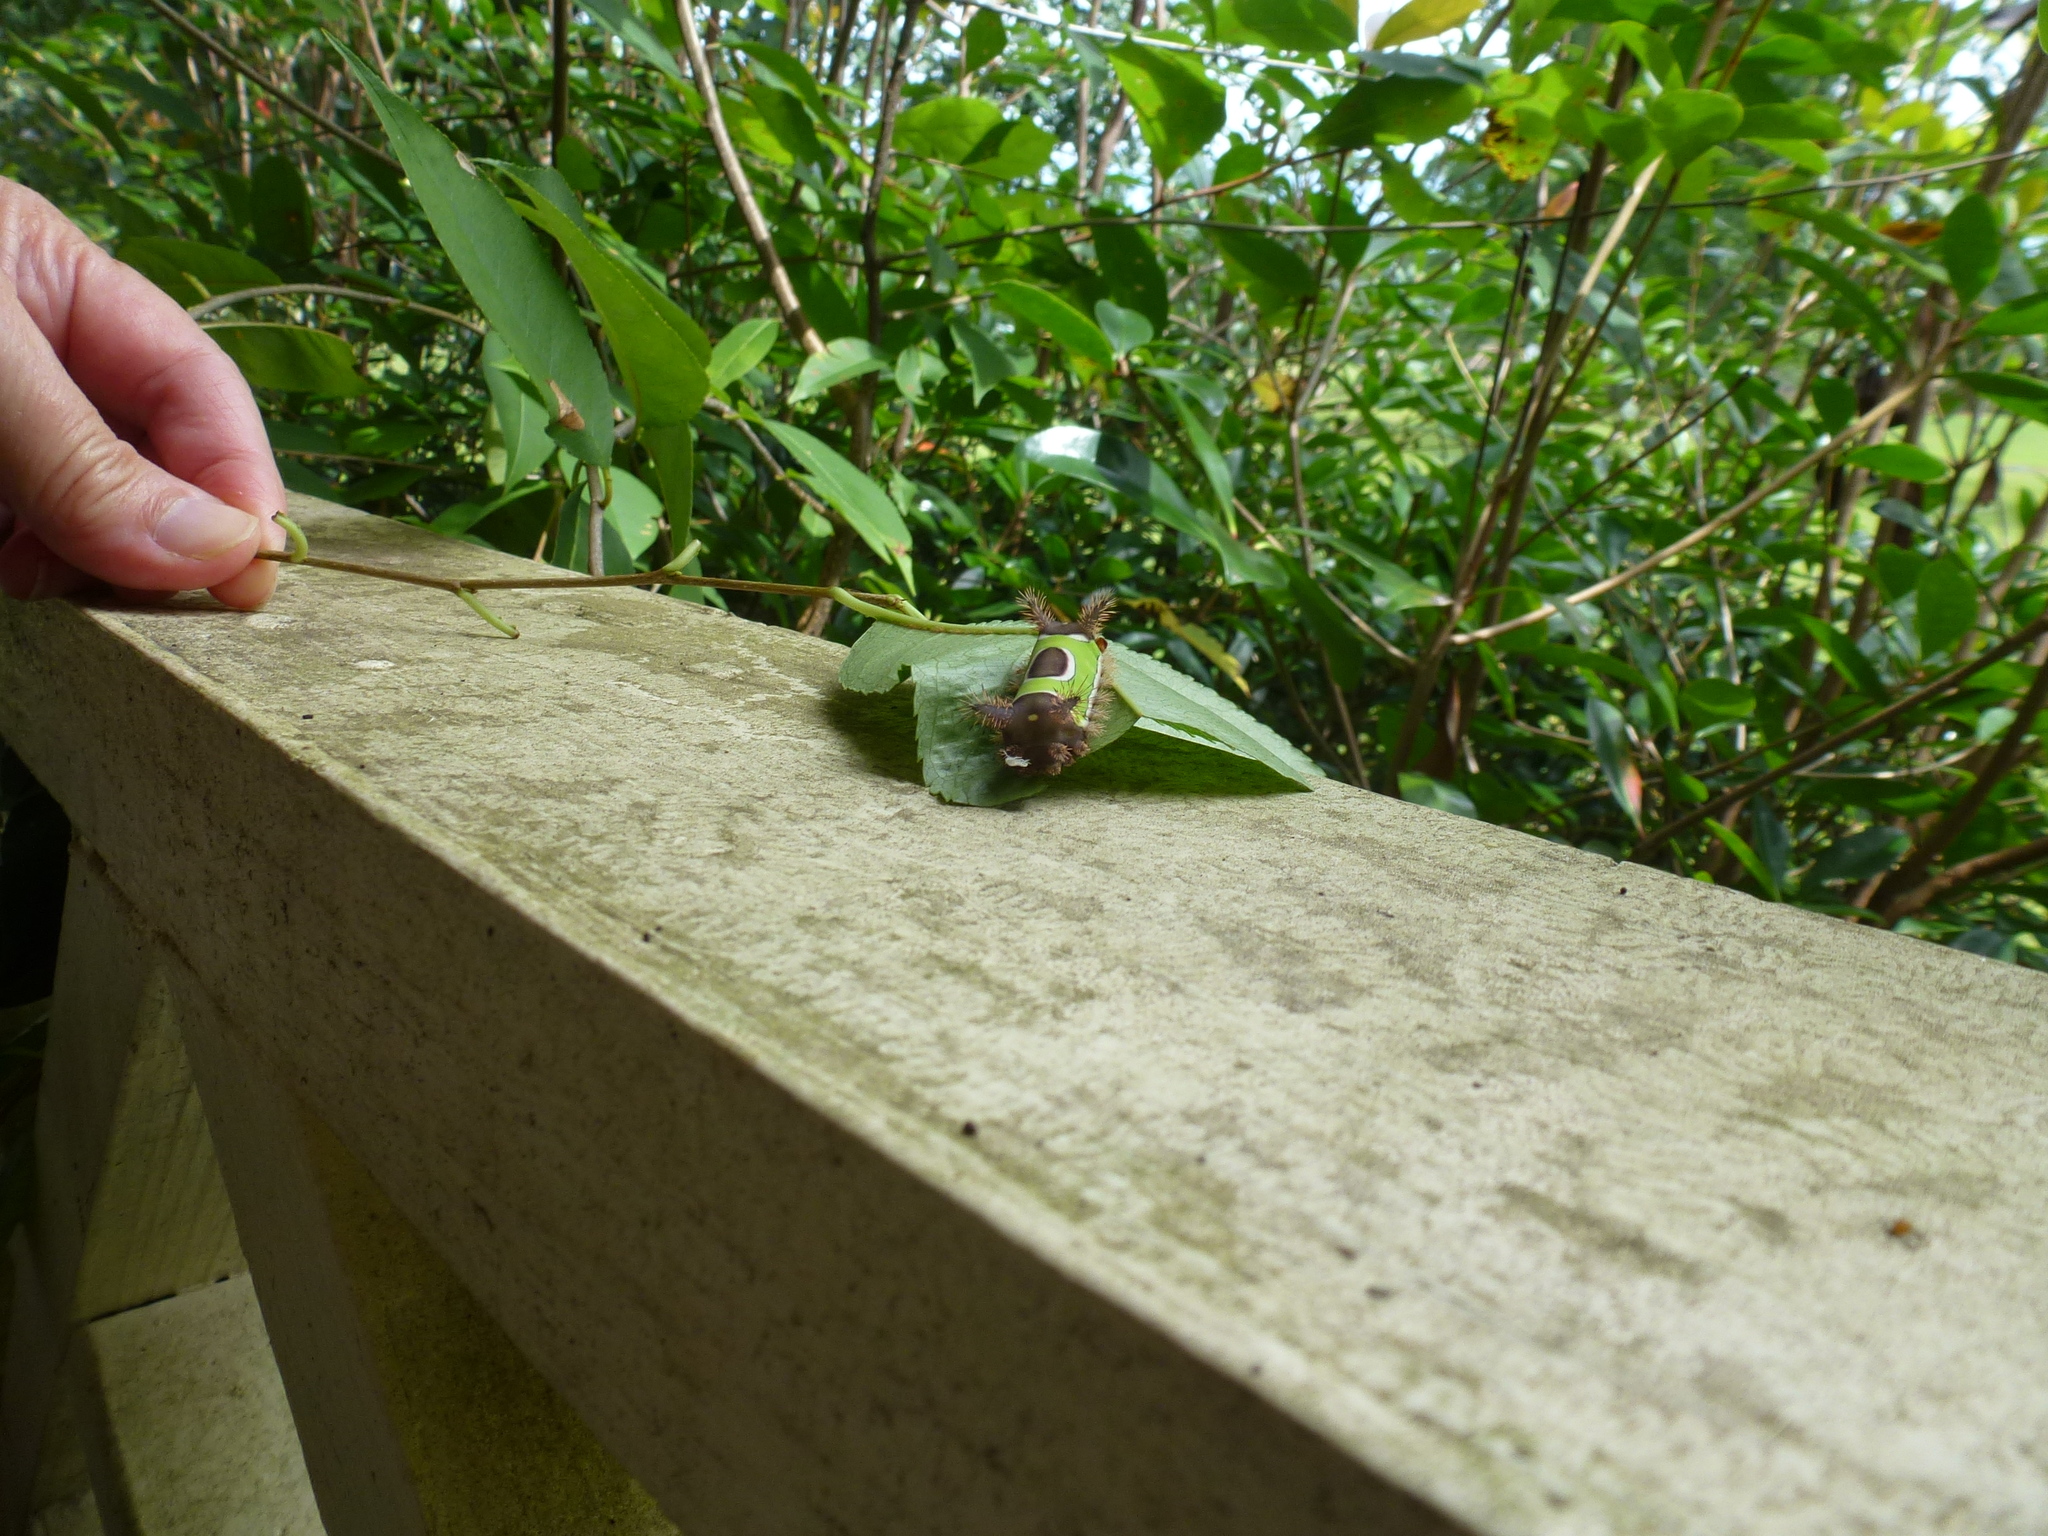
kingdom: Animalia
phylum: Arthropoda
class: Insecta
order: Lepidoptera
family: Limacodidae
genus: Acharia
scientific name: Acharia stimulea
